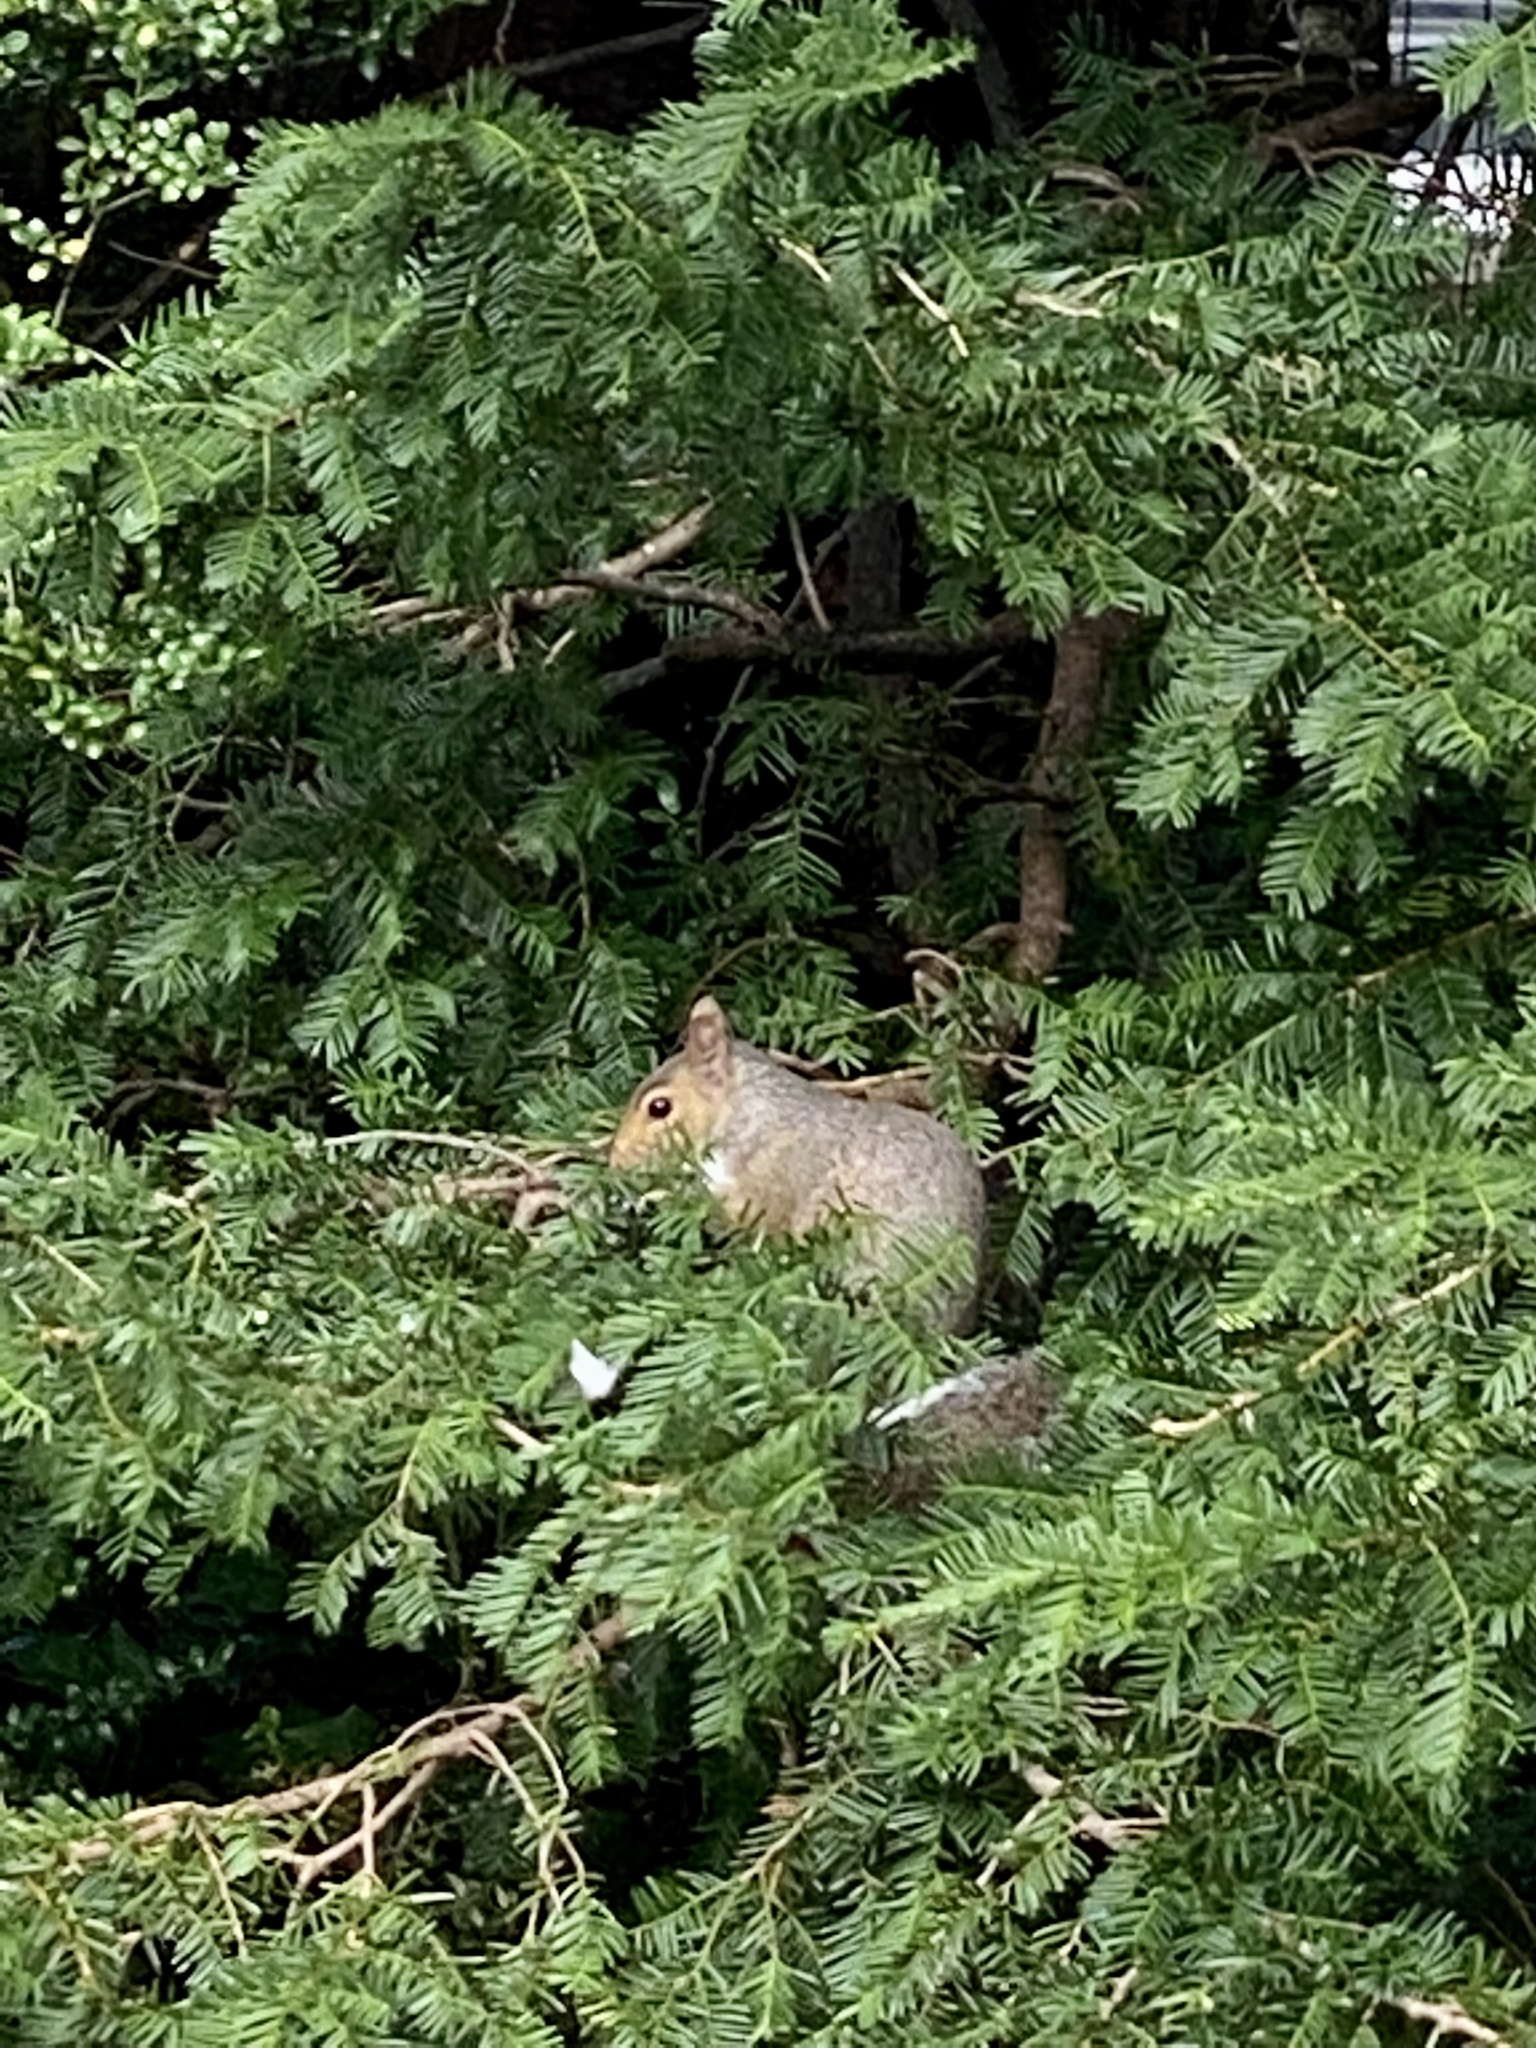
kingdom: Animalia
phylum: Chordata
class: Mammalia
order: Rodentia
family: Sciuridae
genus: Sciurus
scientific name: Sciurus carolinensis
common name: Eastern gray squirrel
